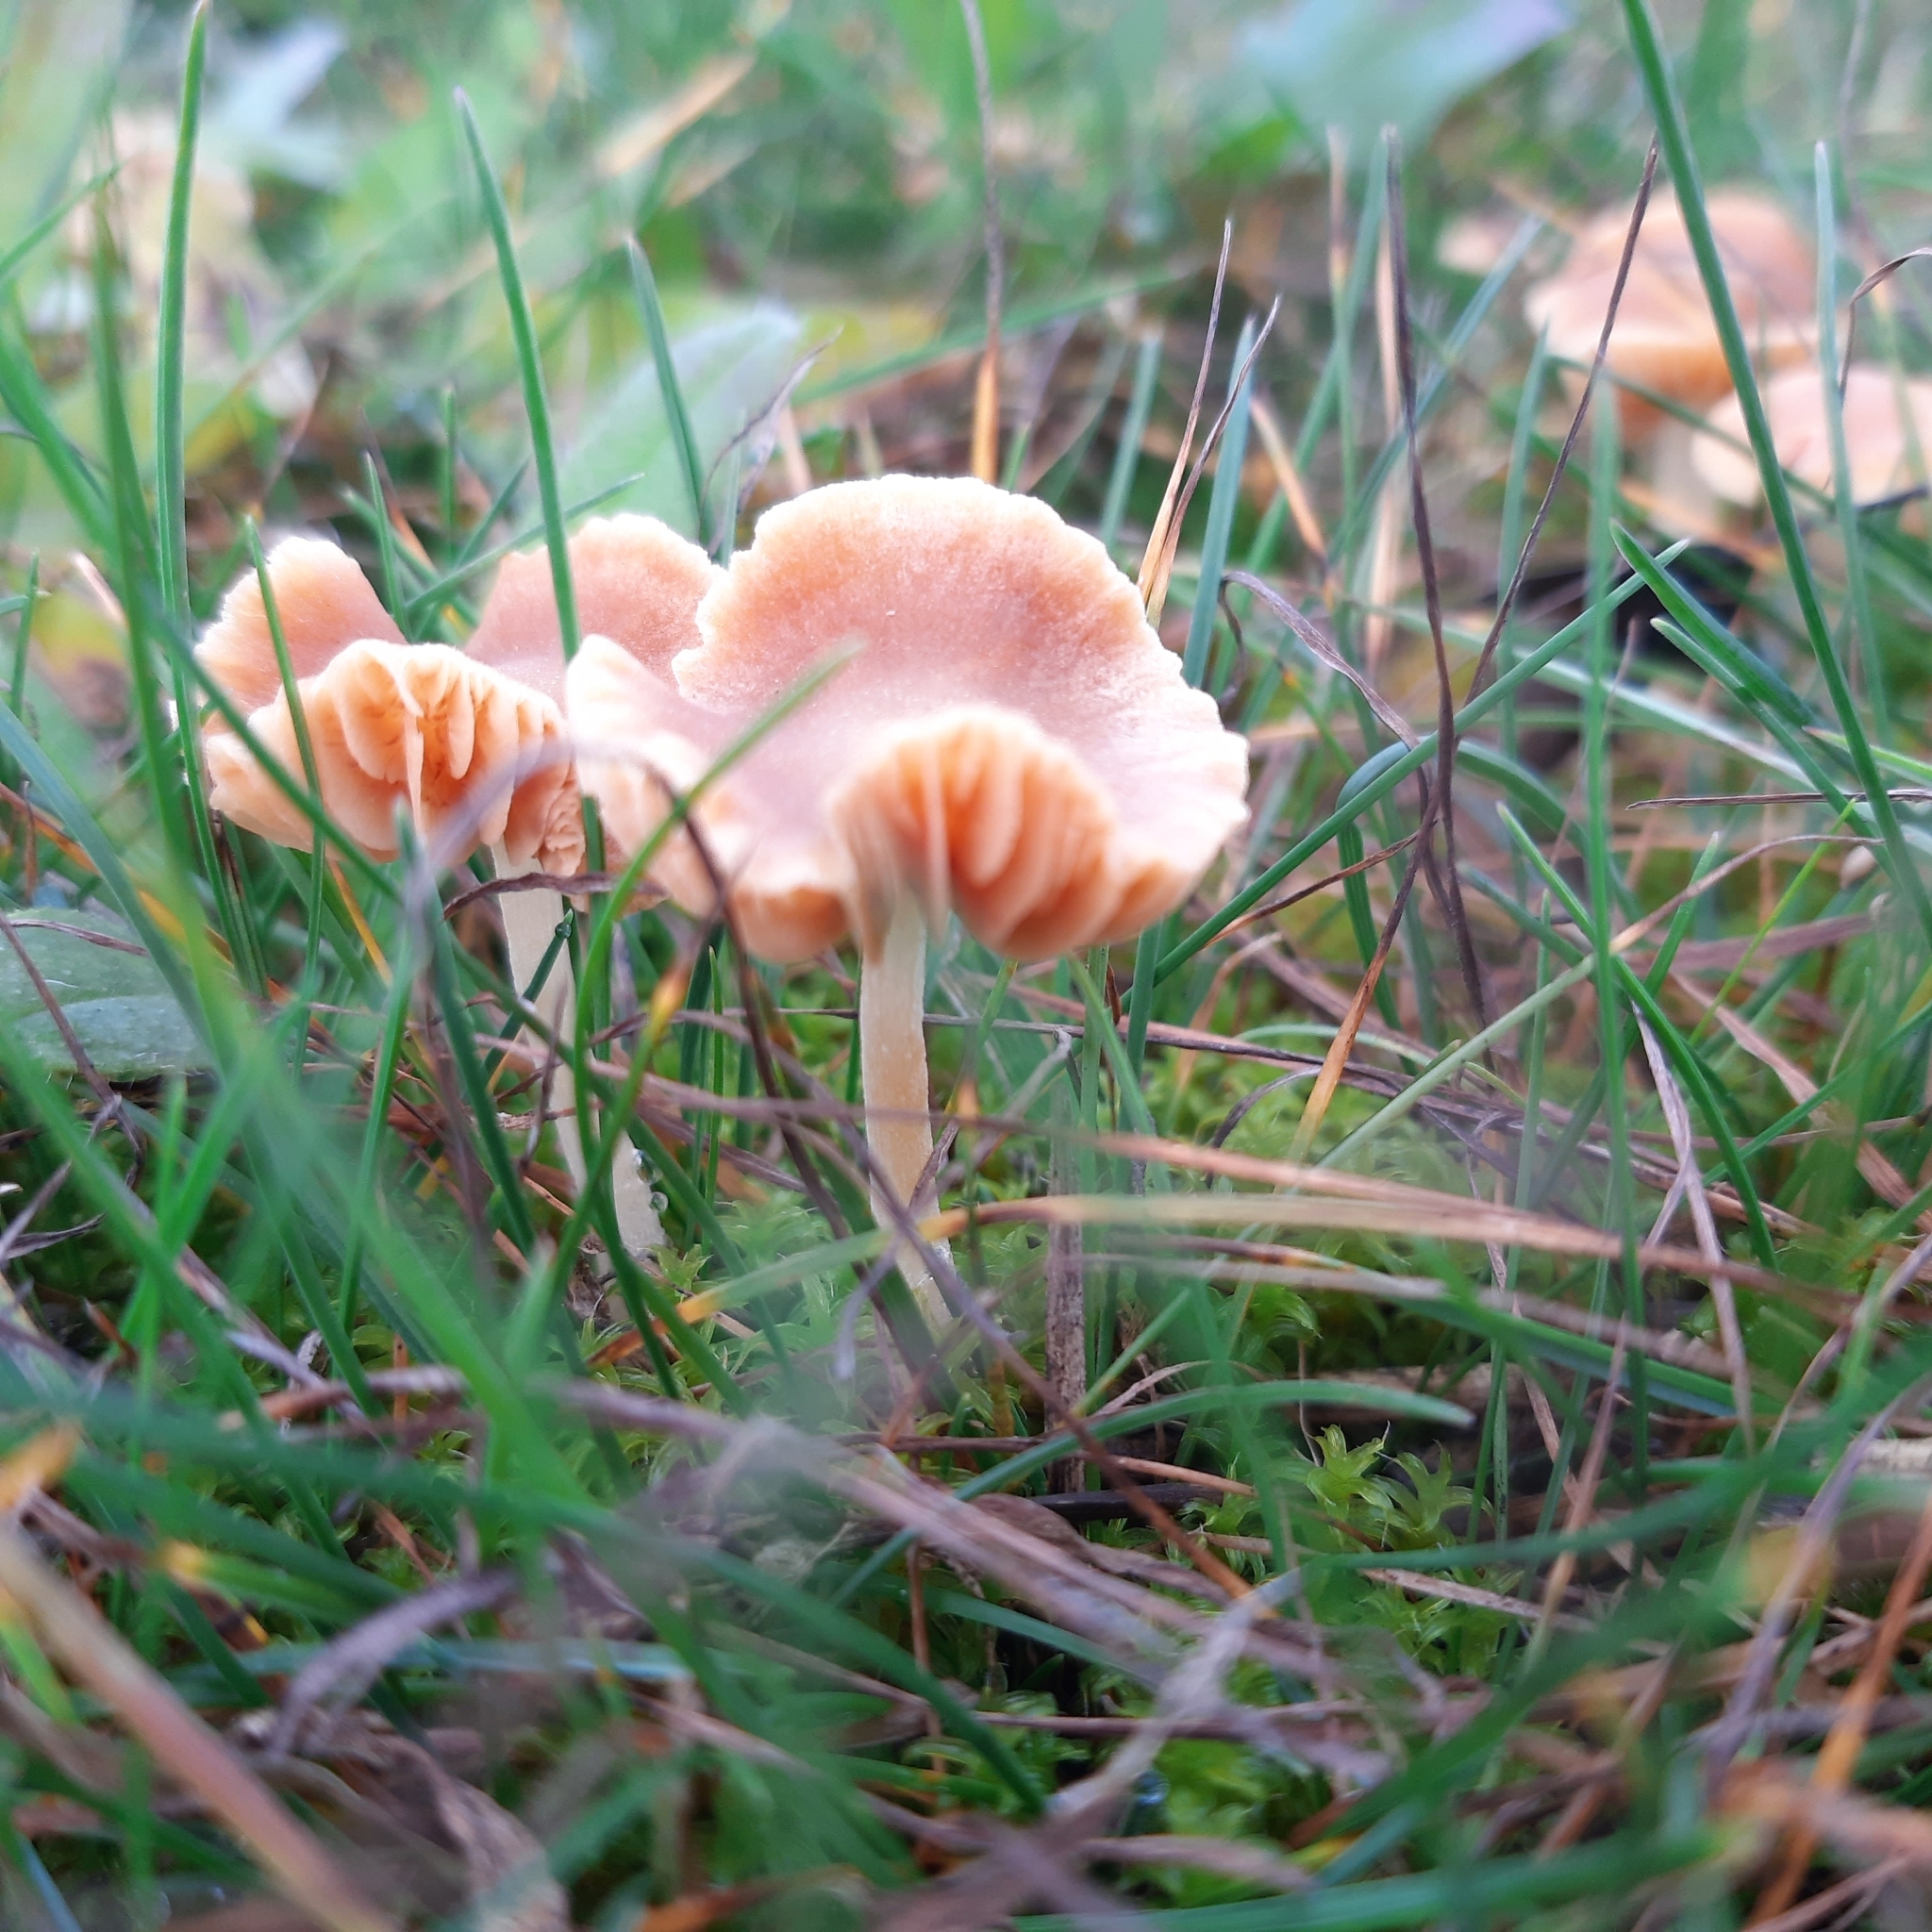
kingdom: Fungi
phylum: Basidiomycota
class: Agaricomycetes
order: Agaricales
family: Hymenogastraceae
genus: Galerina
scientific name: Galerina
